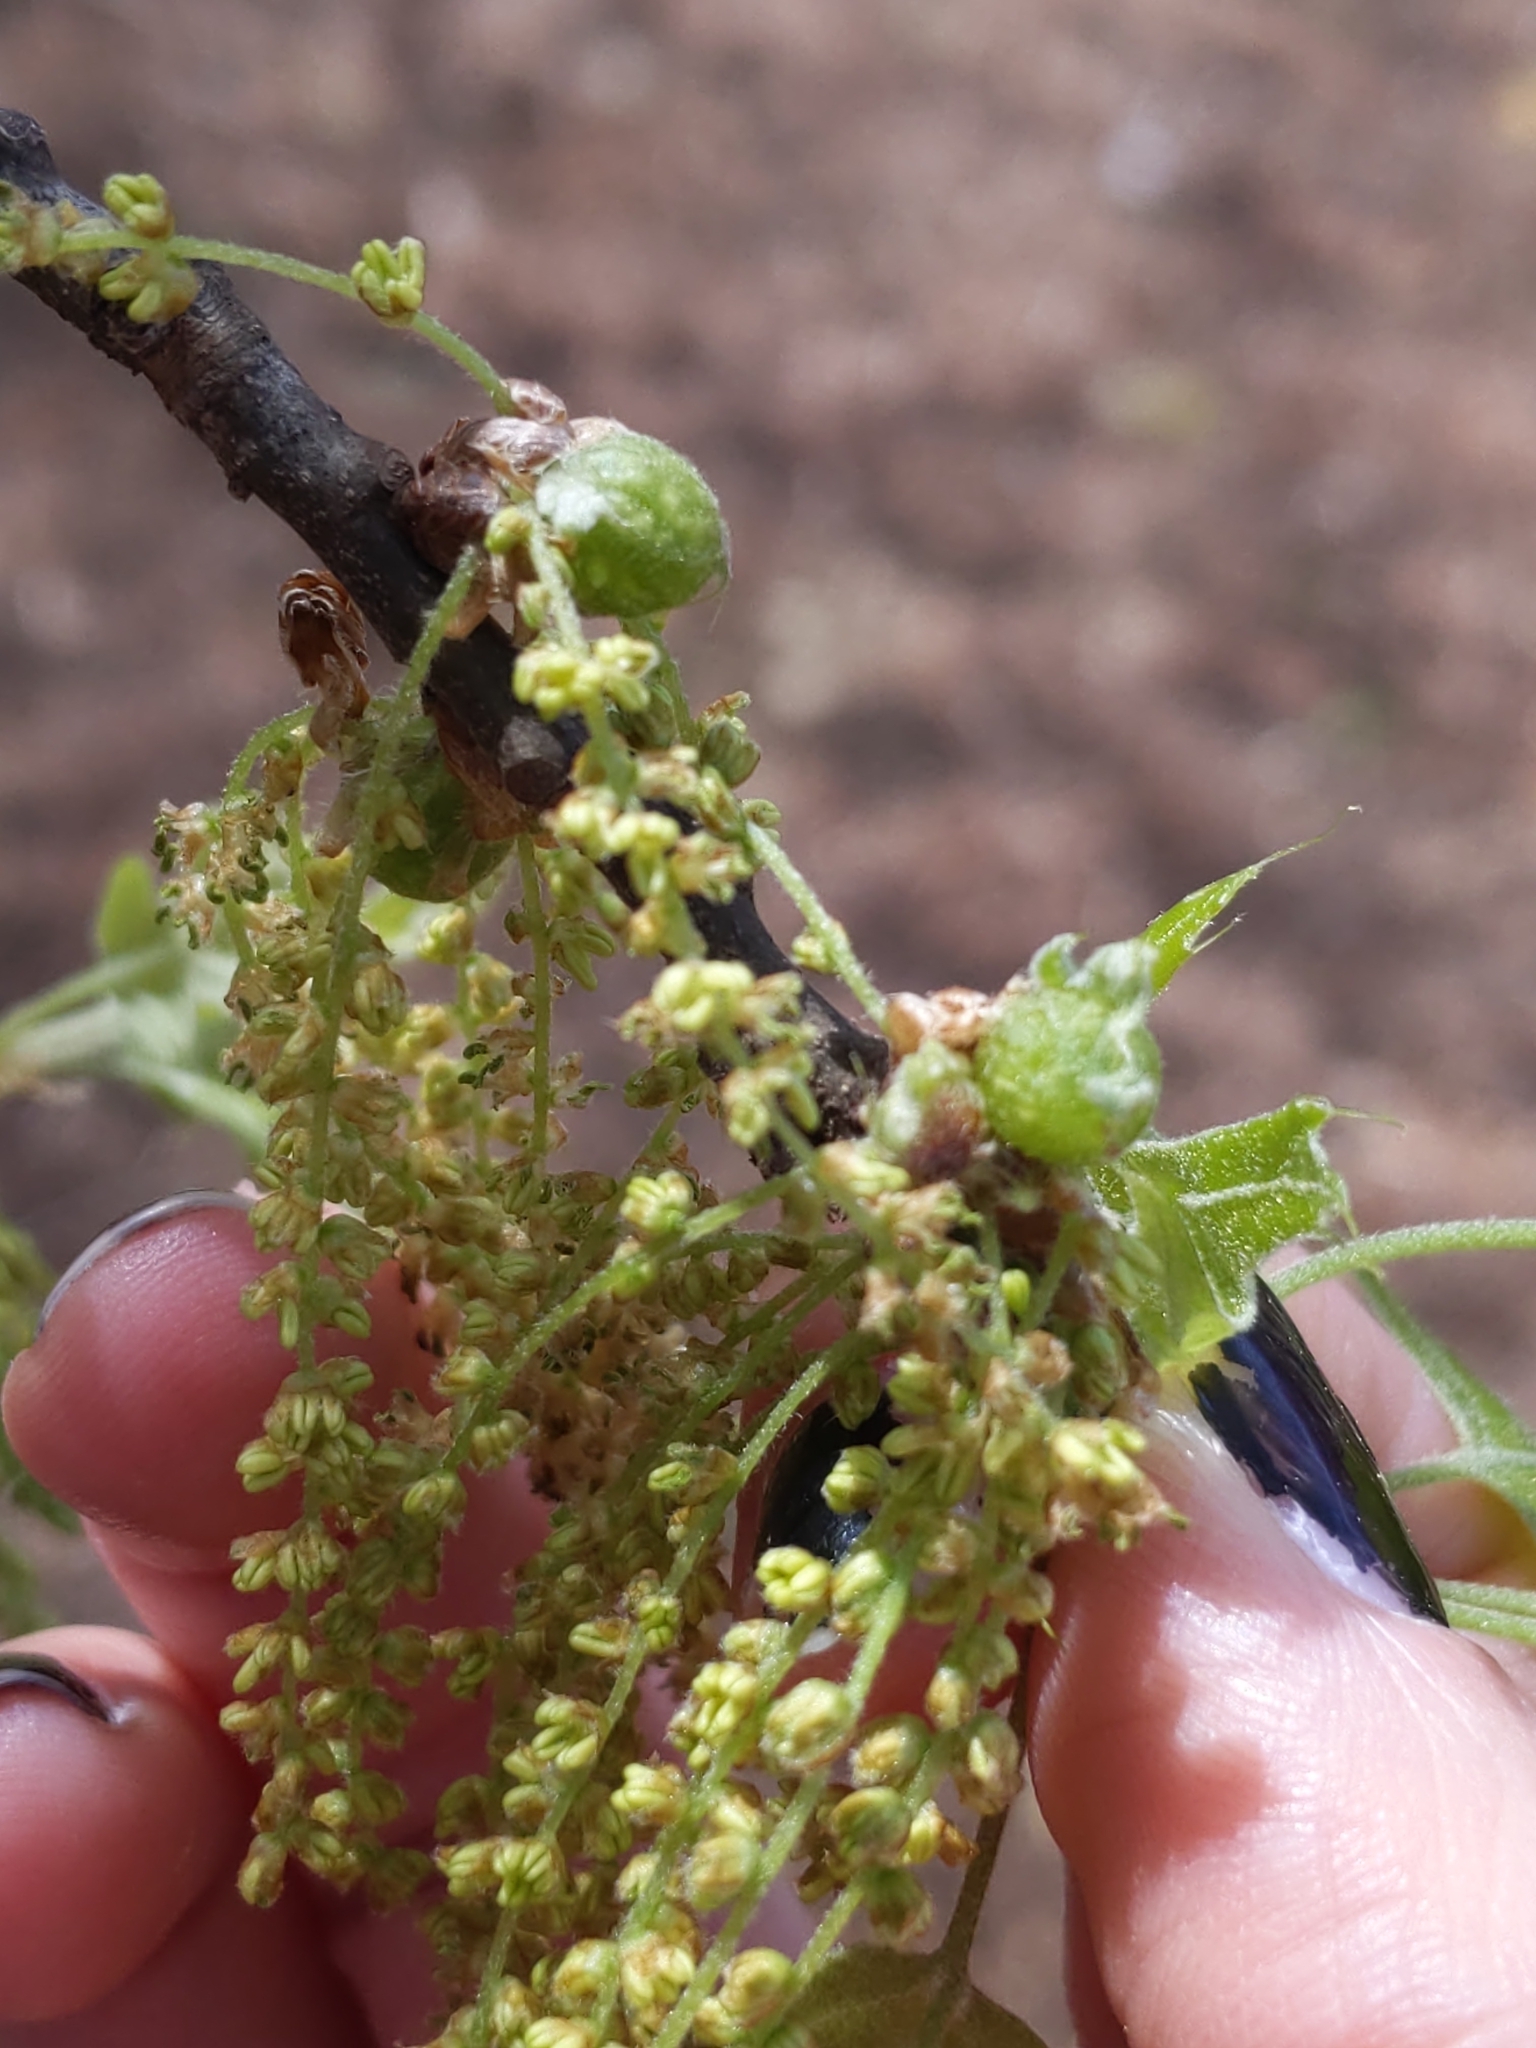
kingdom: Animalia
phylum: Arthropoda
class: Insecta
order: Hymenoptera
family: Cynipidae
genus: Dryocosmus
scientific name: Dryocosmus quercuspalustris
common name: Succulent oak gall wasp
